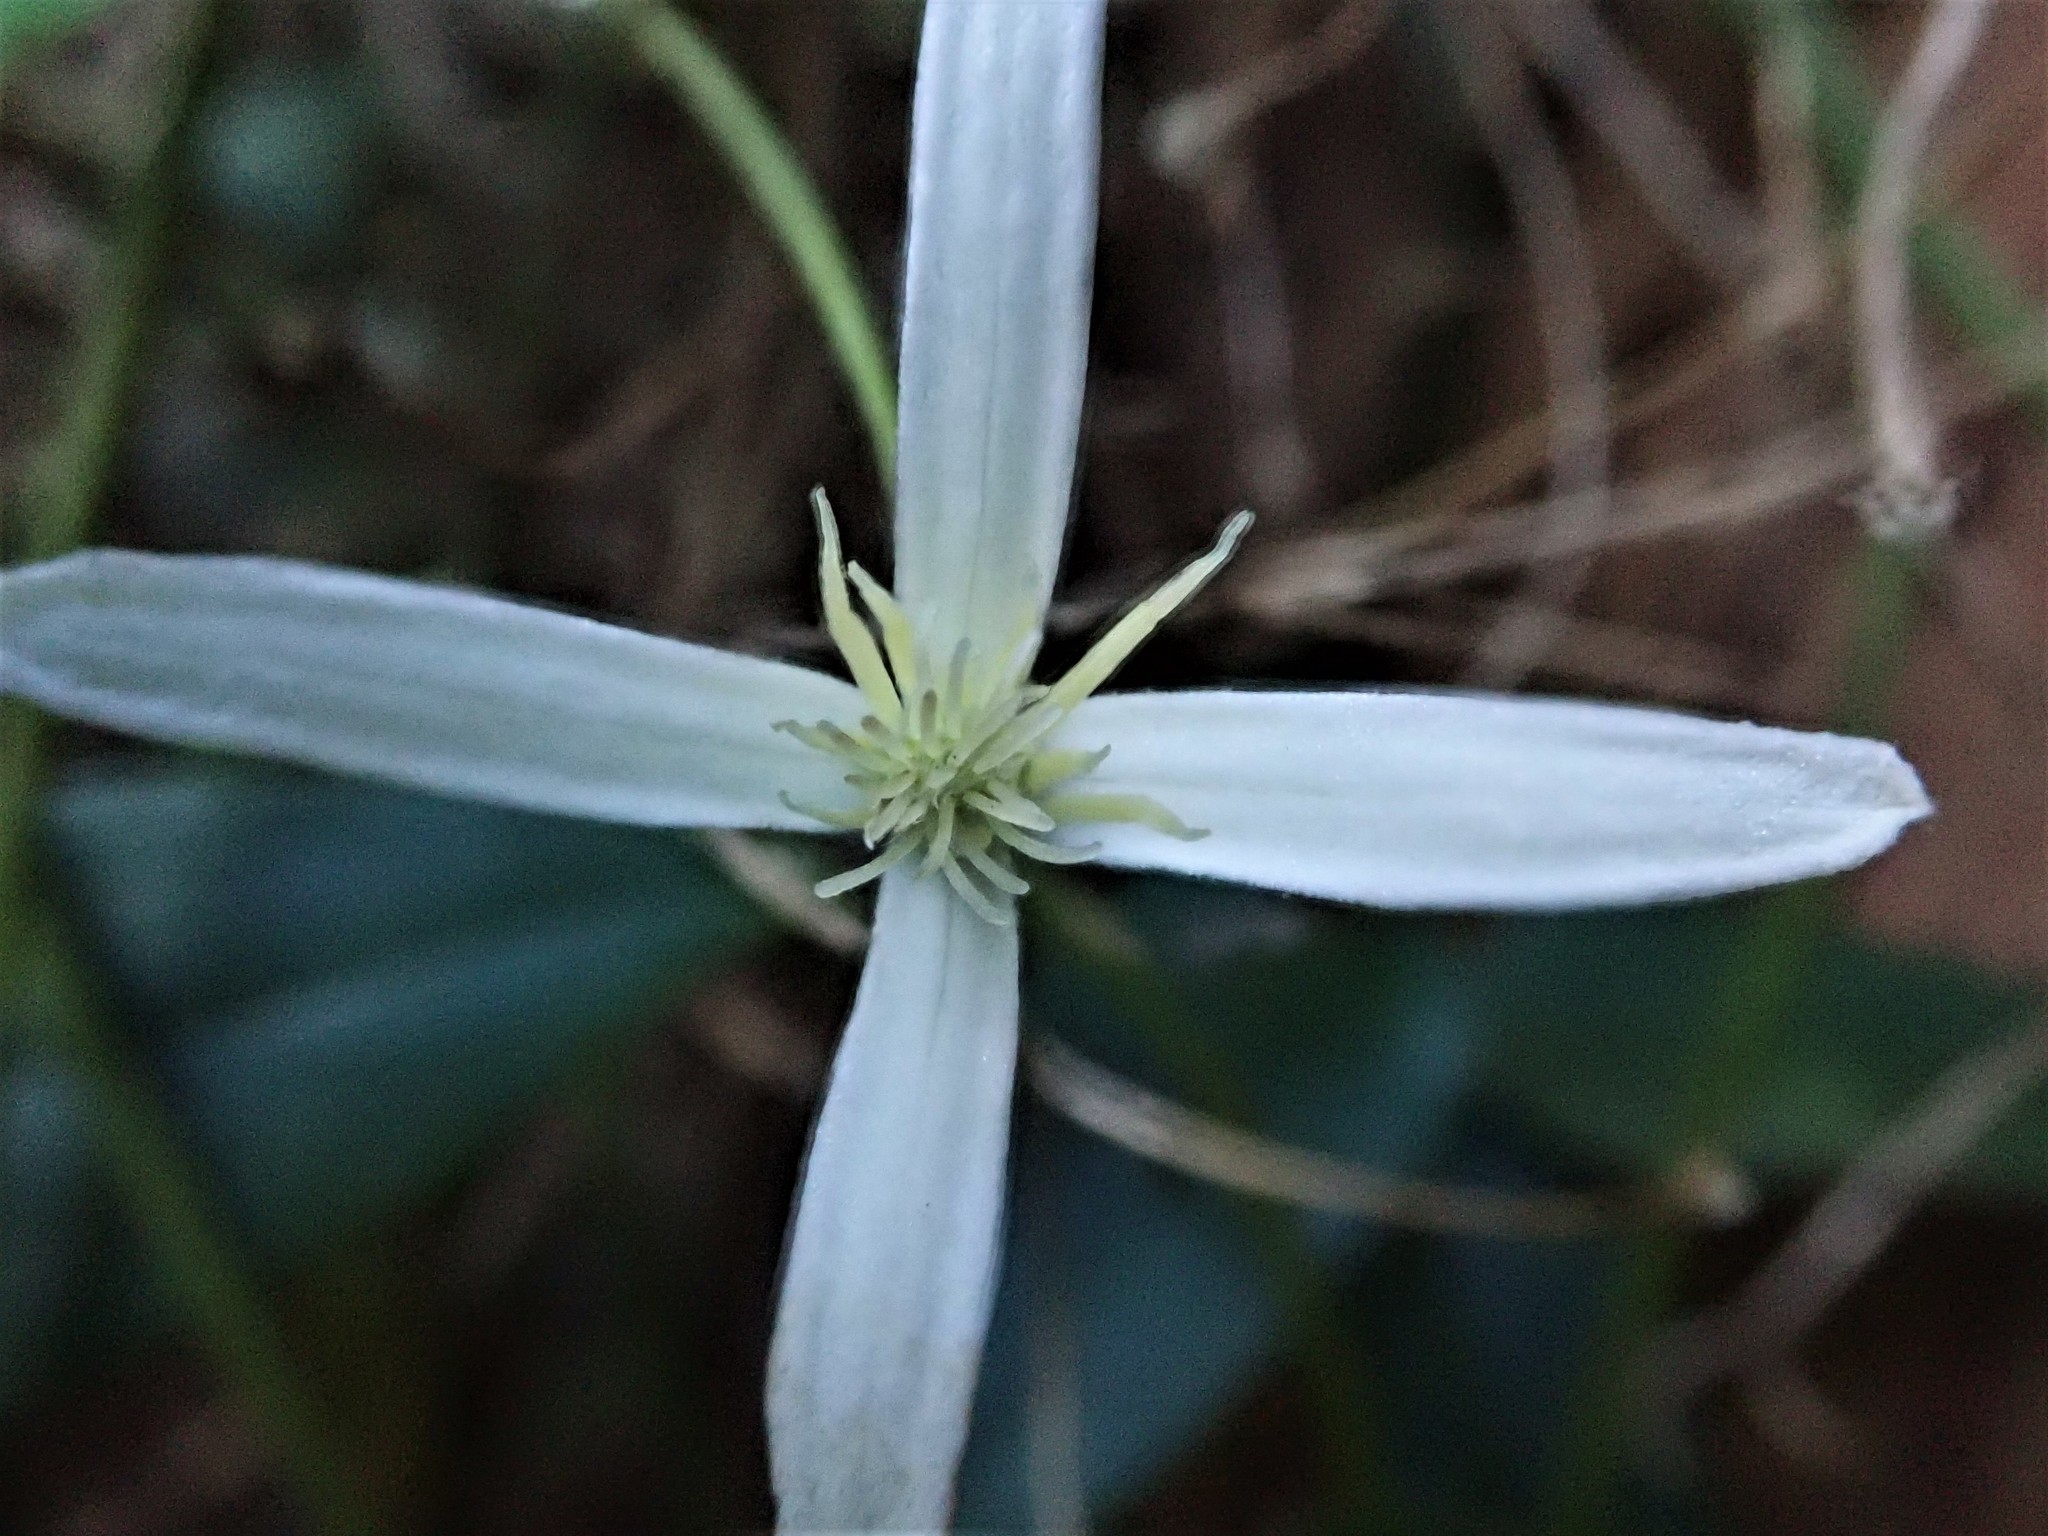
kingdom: Plantae
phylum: Tracheophyta
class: Magnoliopsida
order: Ranunculales
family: Ranunculaceae
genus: Clematis
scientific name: Clematis aristata
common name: Mountain clematis
